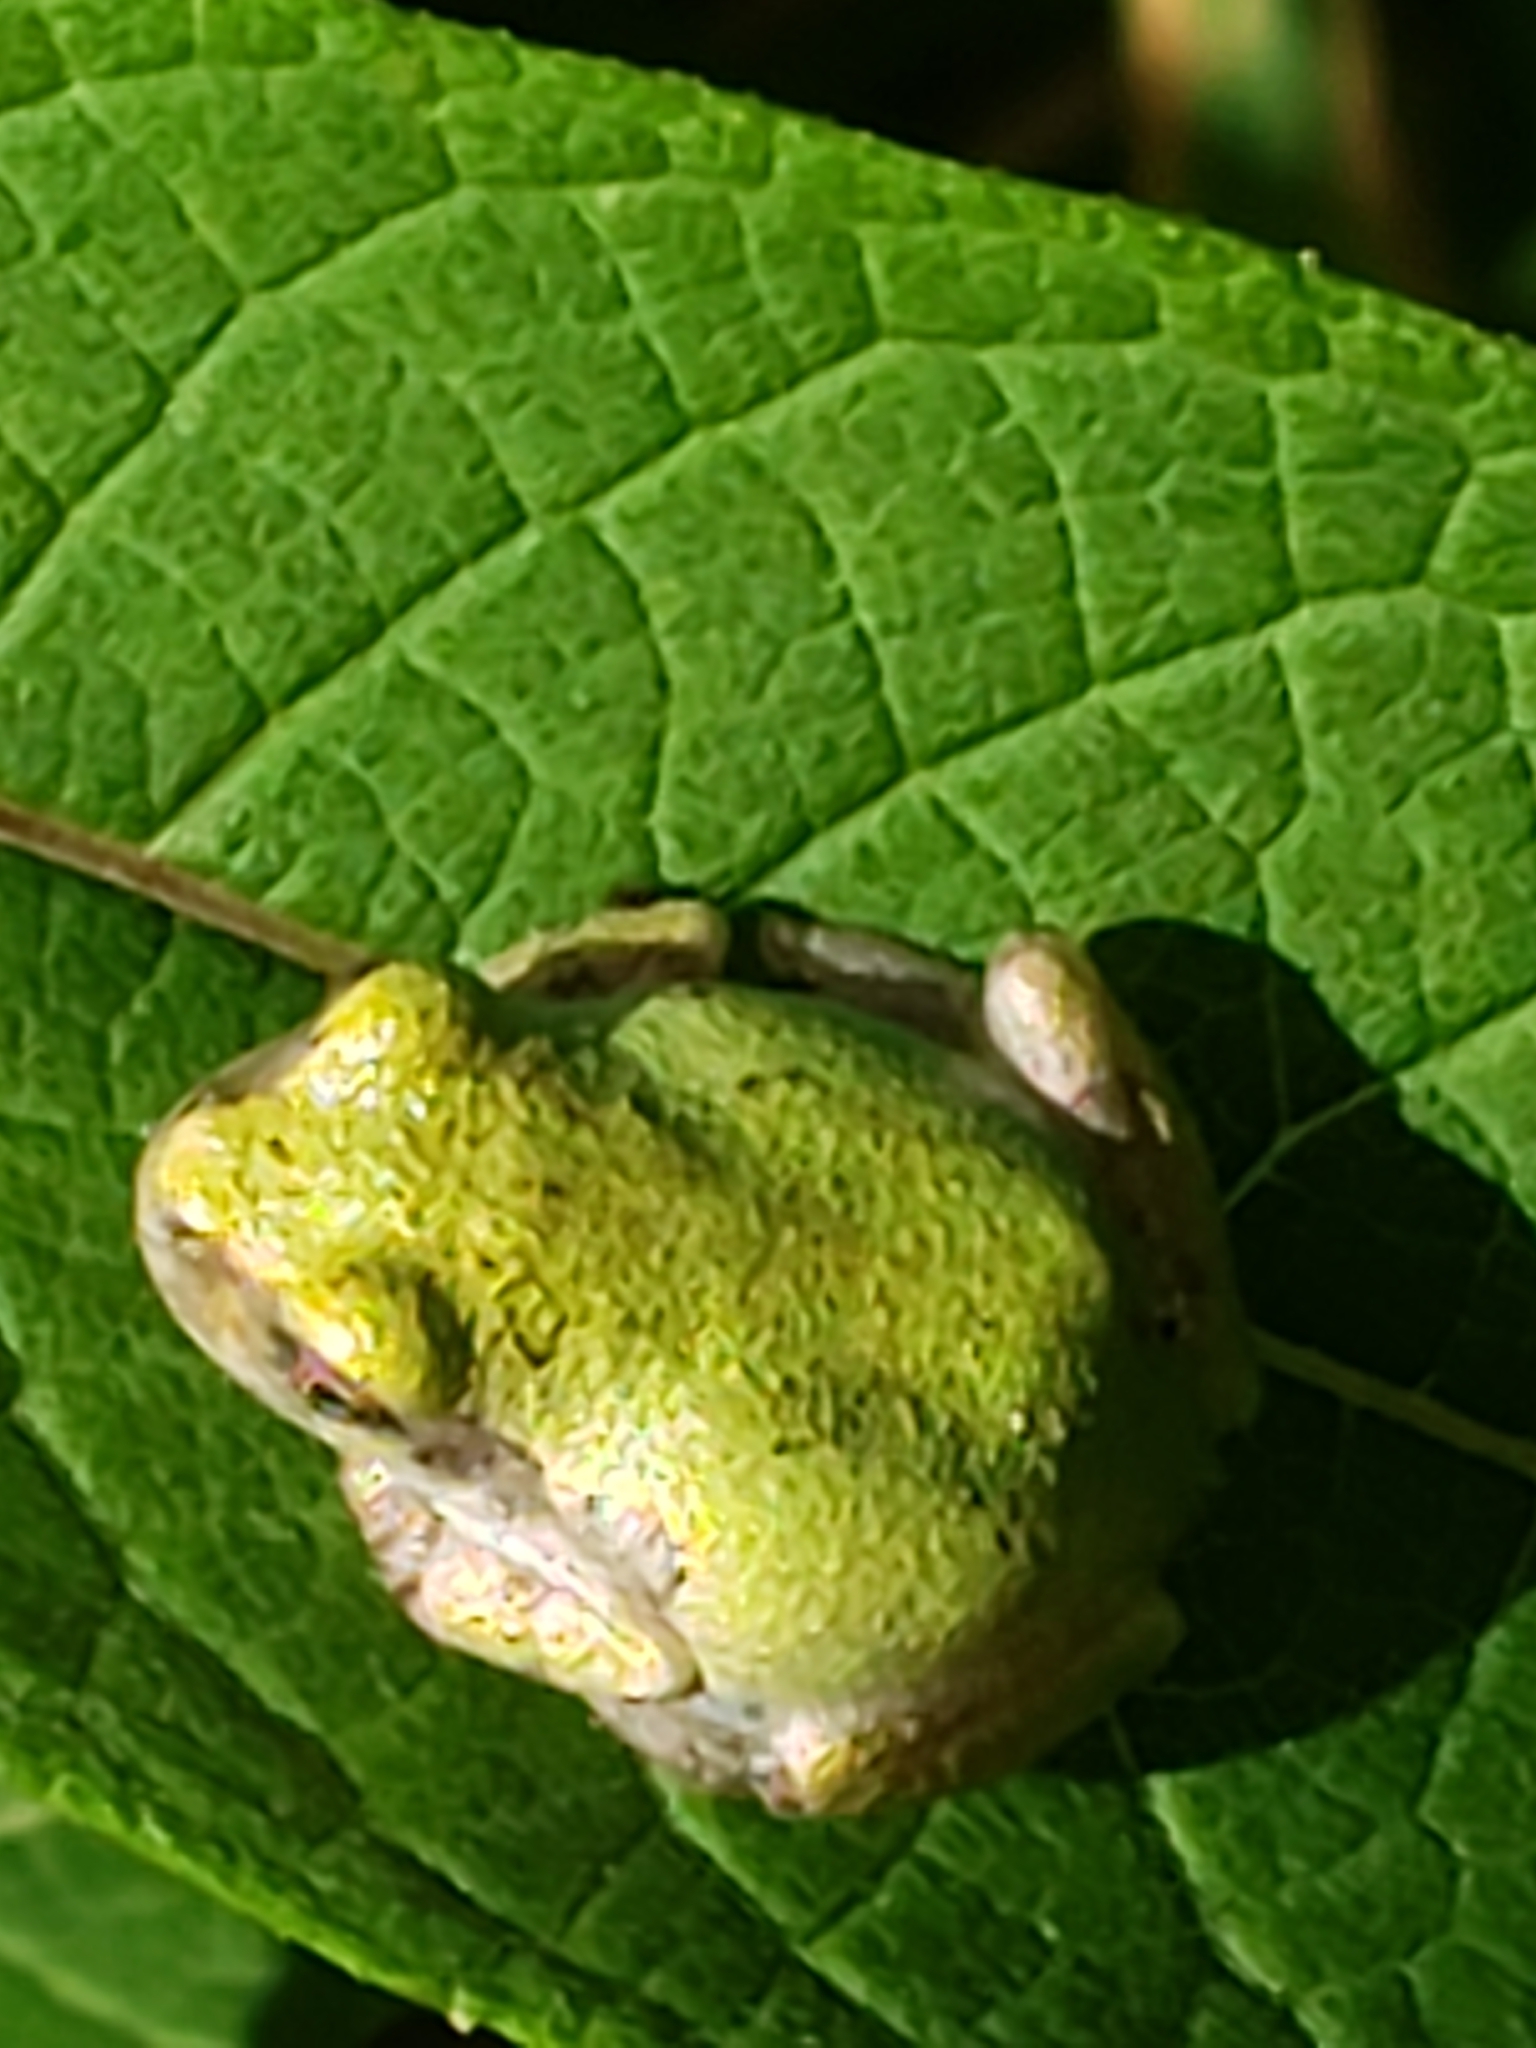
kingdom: Animalia
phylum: Chordata
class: Amphibia
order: Anura
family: Hylidae
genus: Hyla
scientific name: Hyla
